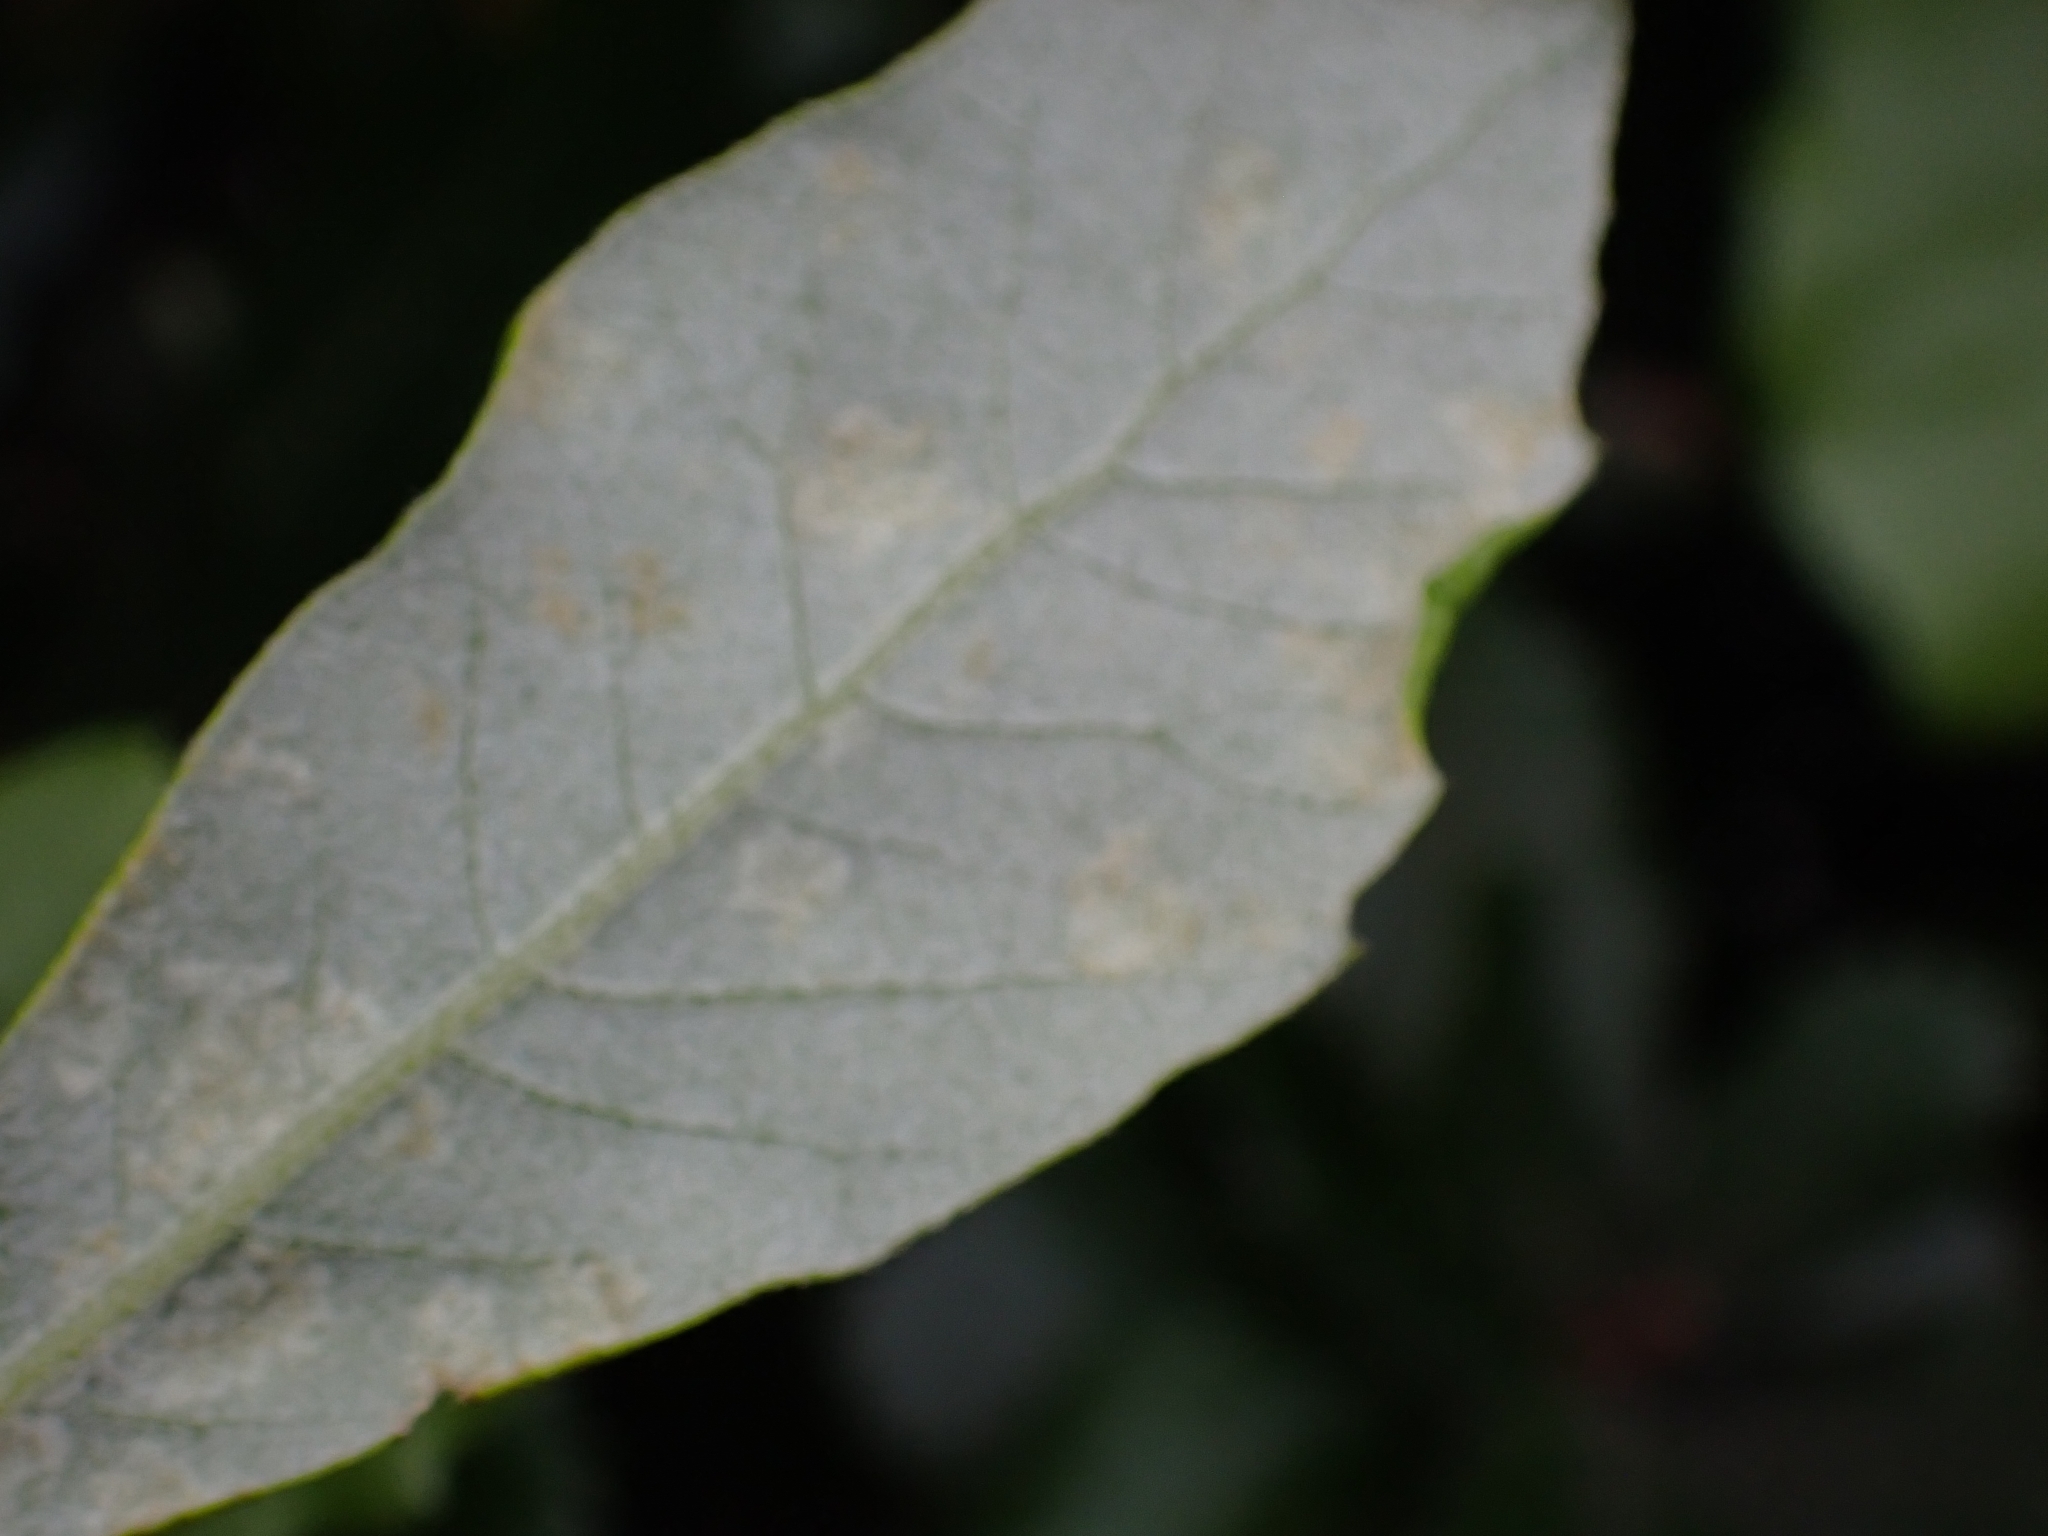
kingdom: Animalia
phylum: Arthropoda
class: Arachnida
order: Trombidiformes
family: Eriophyidae
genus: Aceria
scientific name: Aceria ilicis
